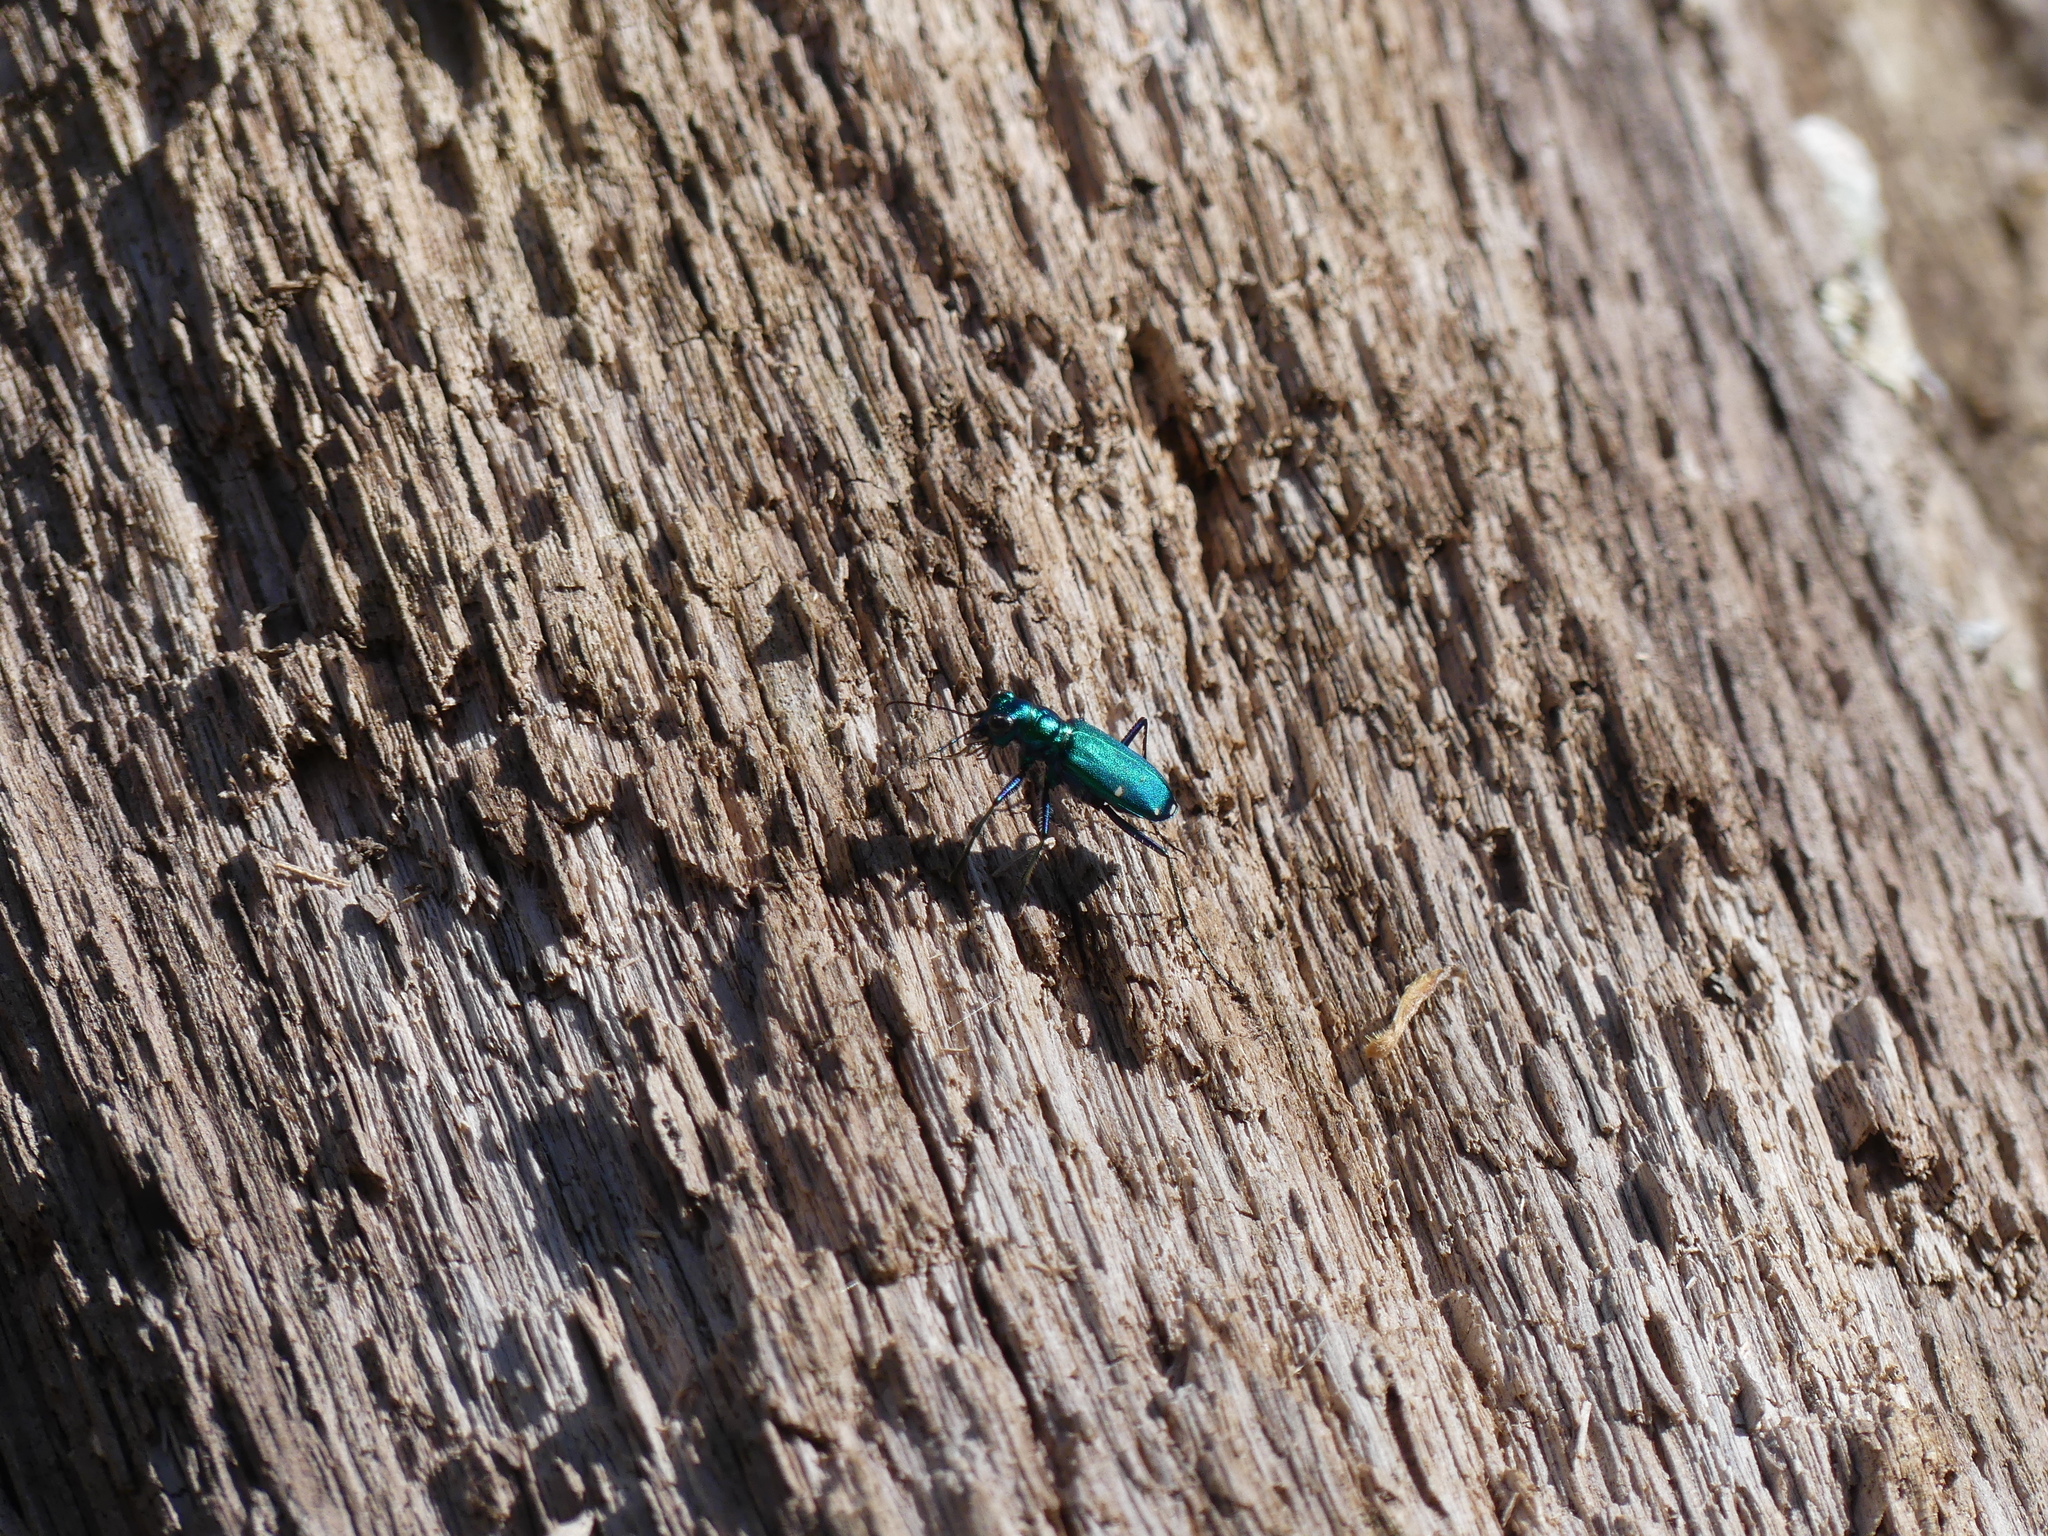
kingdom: Animalia
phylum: Arthropoda
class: Insecta
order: Coleoptera
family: Carabidae
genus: Cicindela
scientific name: Cicindela sexguttata
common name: Six-spotted tiger beetle
